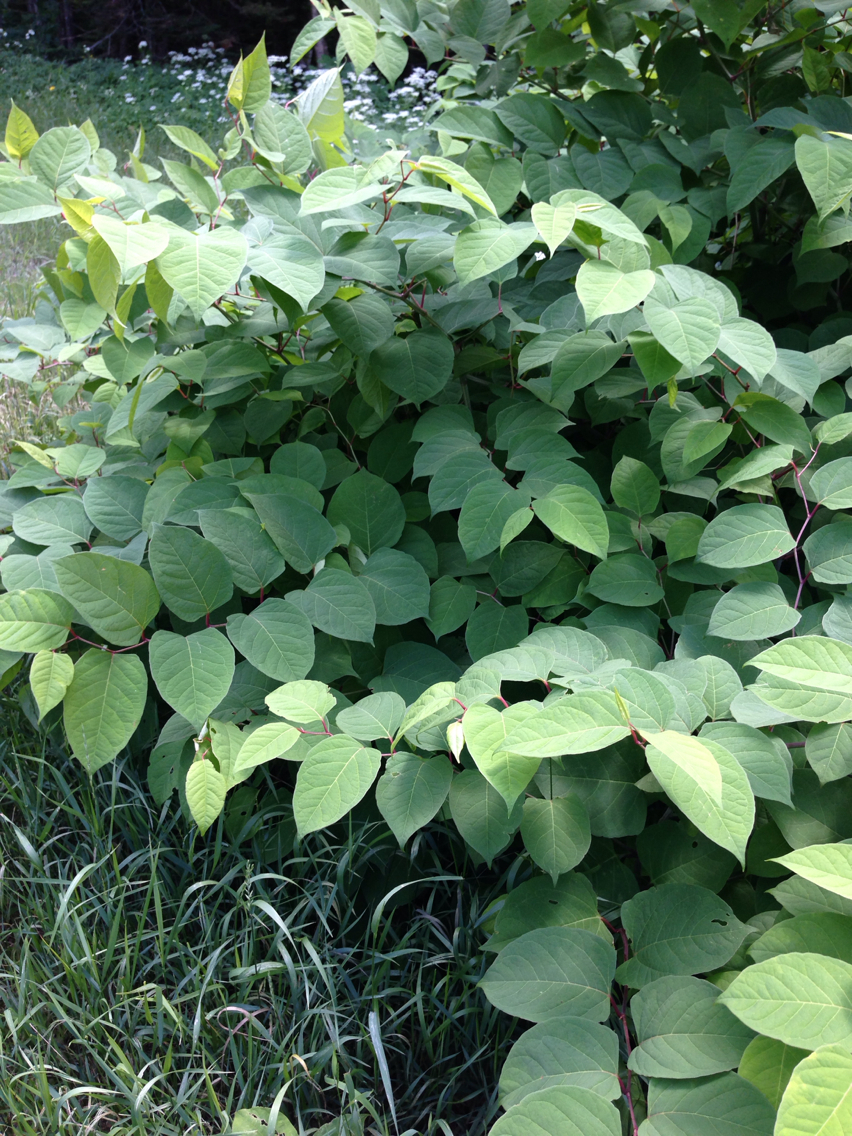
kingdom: Plantae
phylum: Tracheophyta
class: Magnoliopsida
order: Caryophyllales
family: Polygonaceae
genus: Reynoutria
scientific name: Reynoutria japonica
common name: Japanese knotweed
